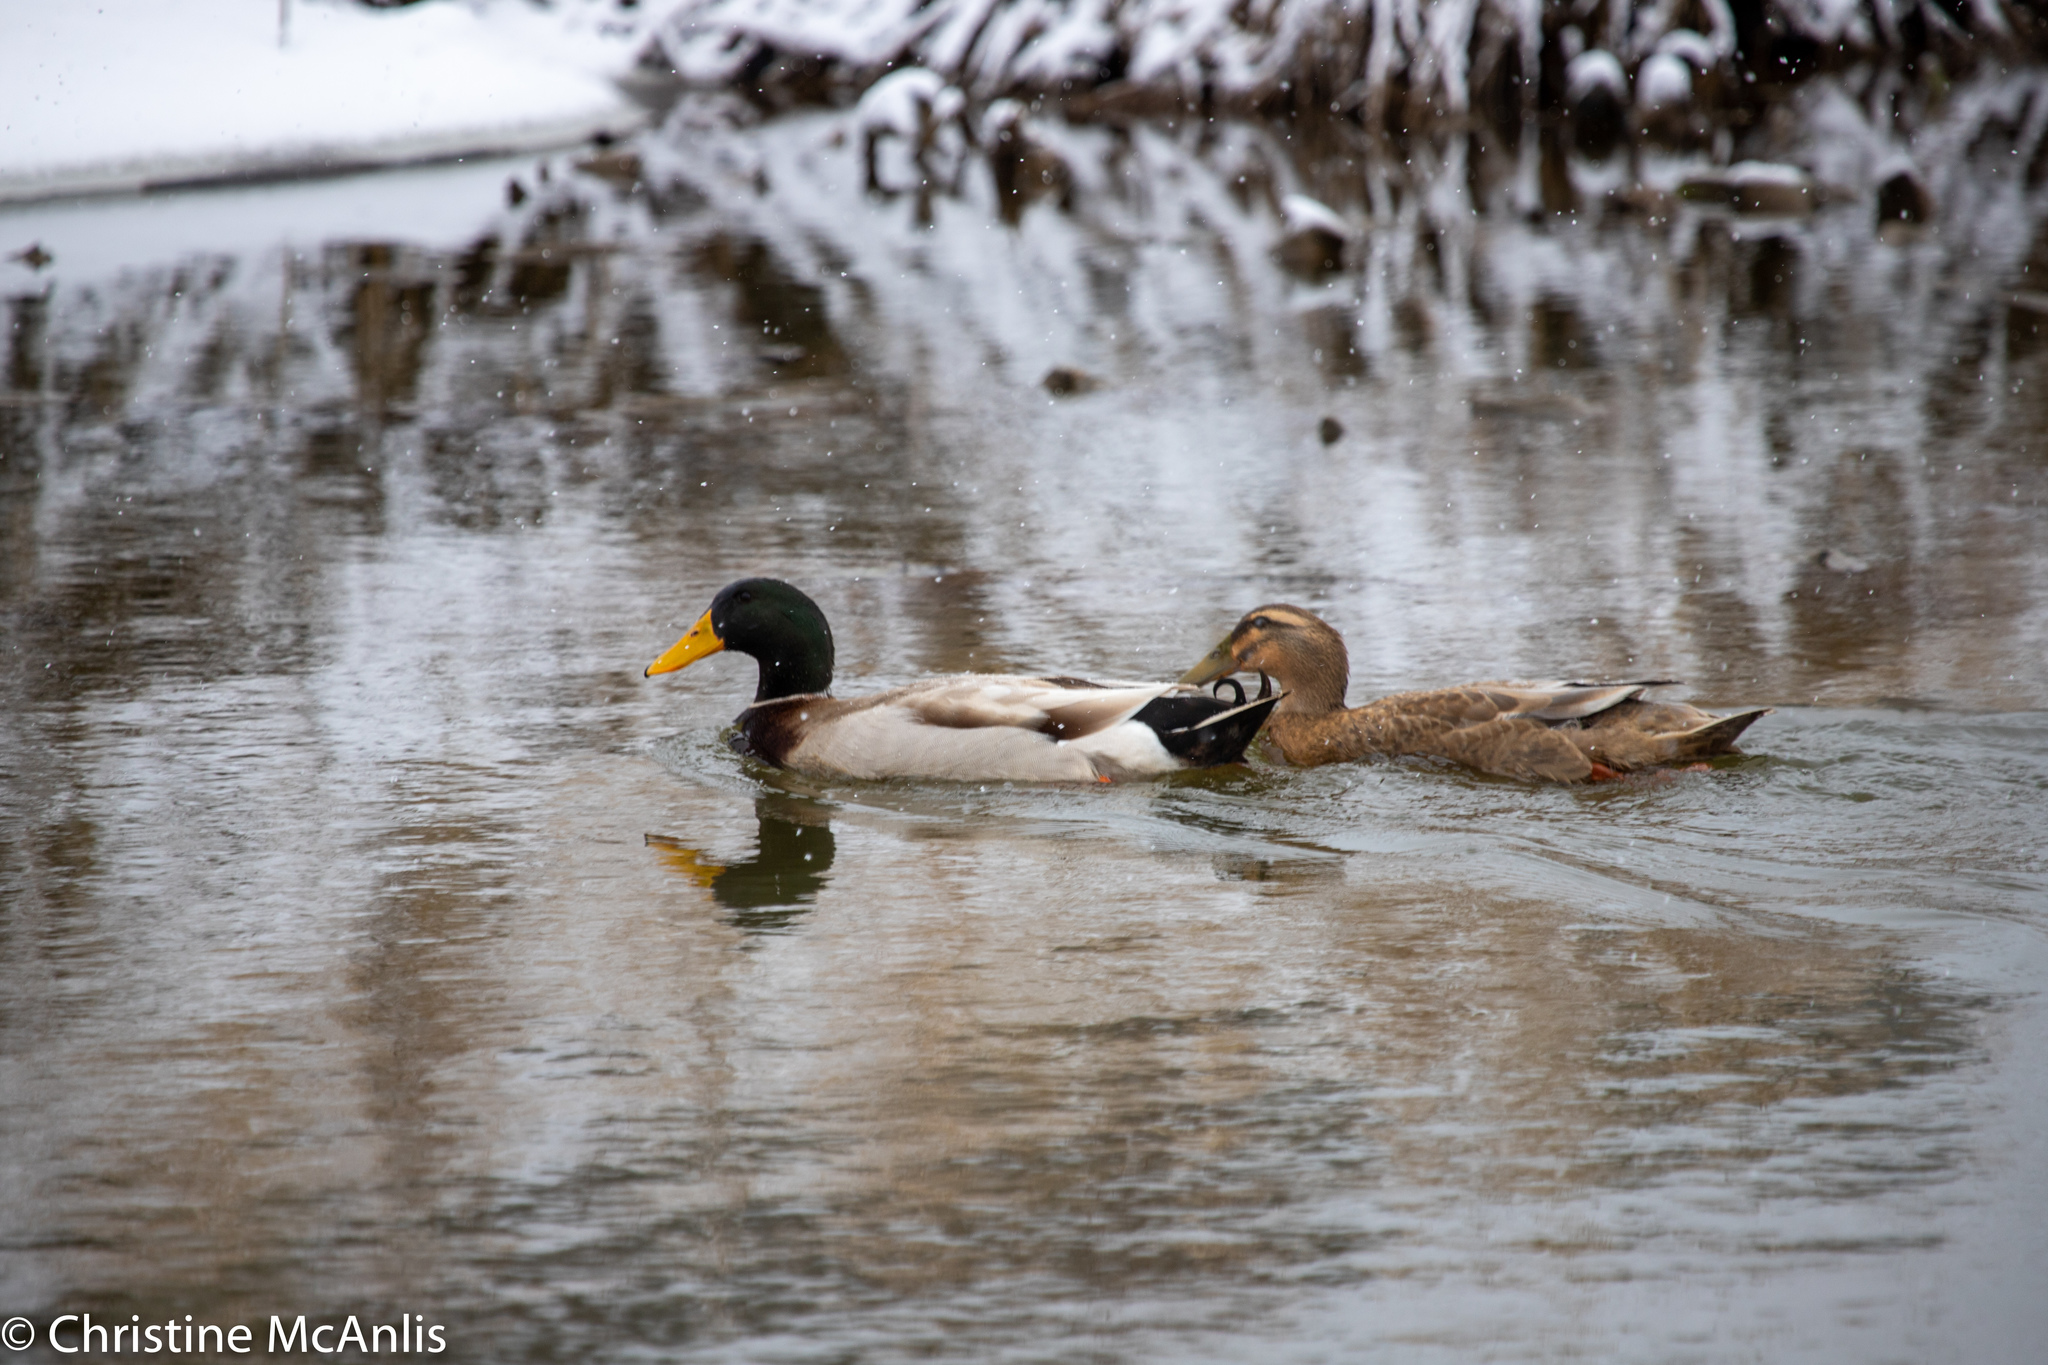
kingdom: Animalia
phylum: Chordata
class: Aves
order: Anseriformes
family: Anatidae
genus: Anas
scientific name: Anas platyrhynchos
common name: Mallard
